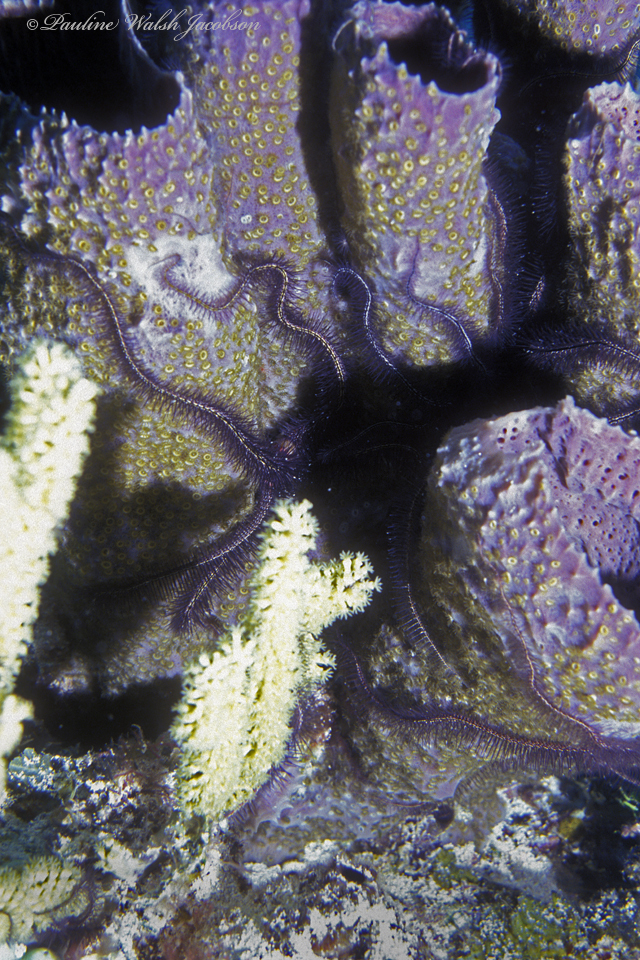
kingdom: Animalia
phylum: Echinodermata
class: Ophiuroidea
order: Amphilepidida
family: Ophiotrichidae
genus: Ophiothrix
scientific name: Ophiothrix suensonii
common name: Sponge brittle star
